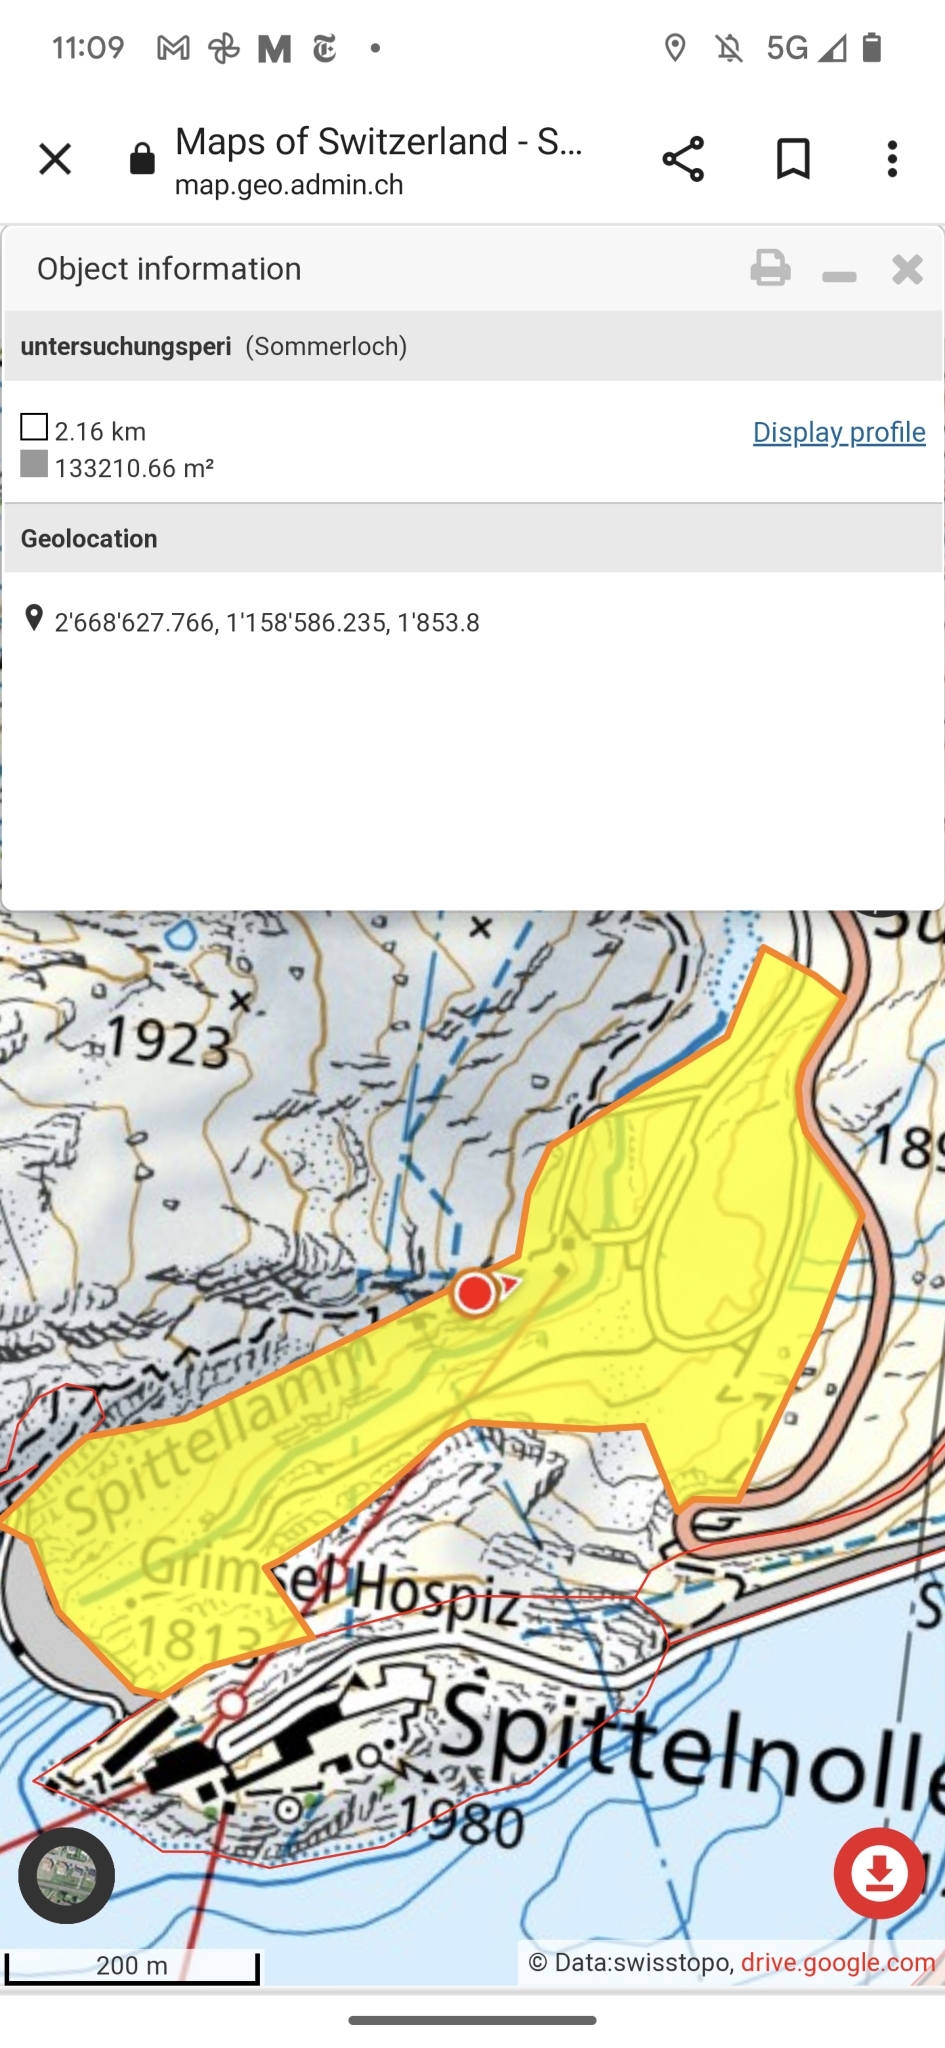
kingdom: Plantae
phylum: Tracheophyta
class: Magnoliopsida
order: Gentianales
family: Gentianaceae
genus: Gentianella
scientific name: Gentianella ramosa
